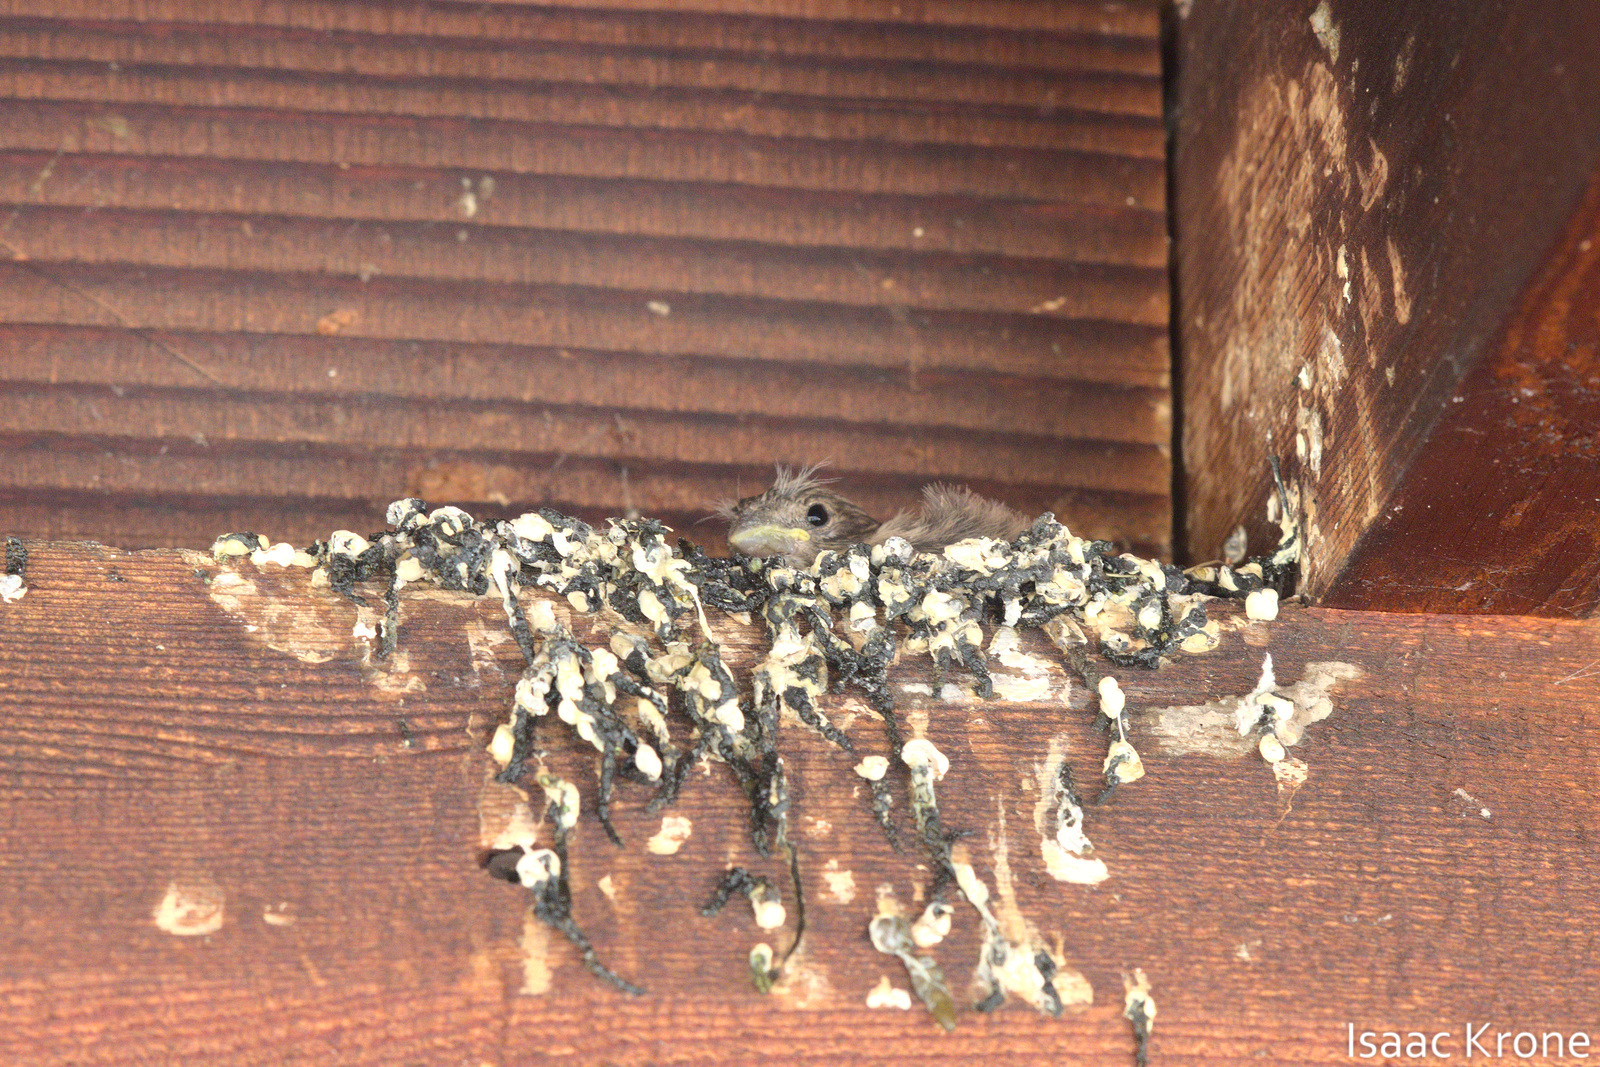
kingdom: Animalia
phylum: Chordata
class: Aves
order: Passeriformes
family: Fringillidae
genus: Haemorhous
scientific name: Haemorhous mexicanus
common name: House finch
